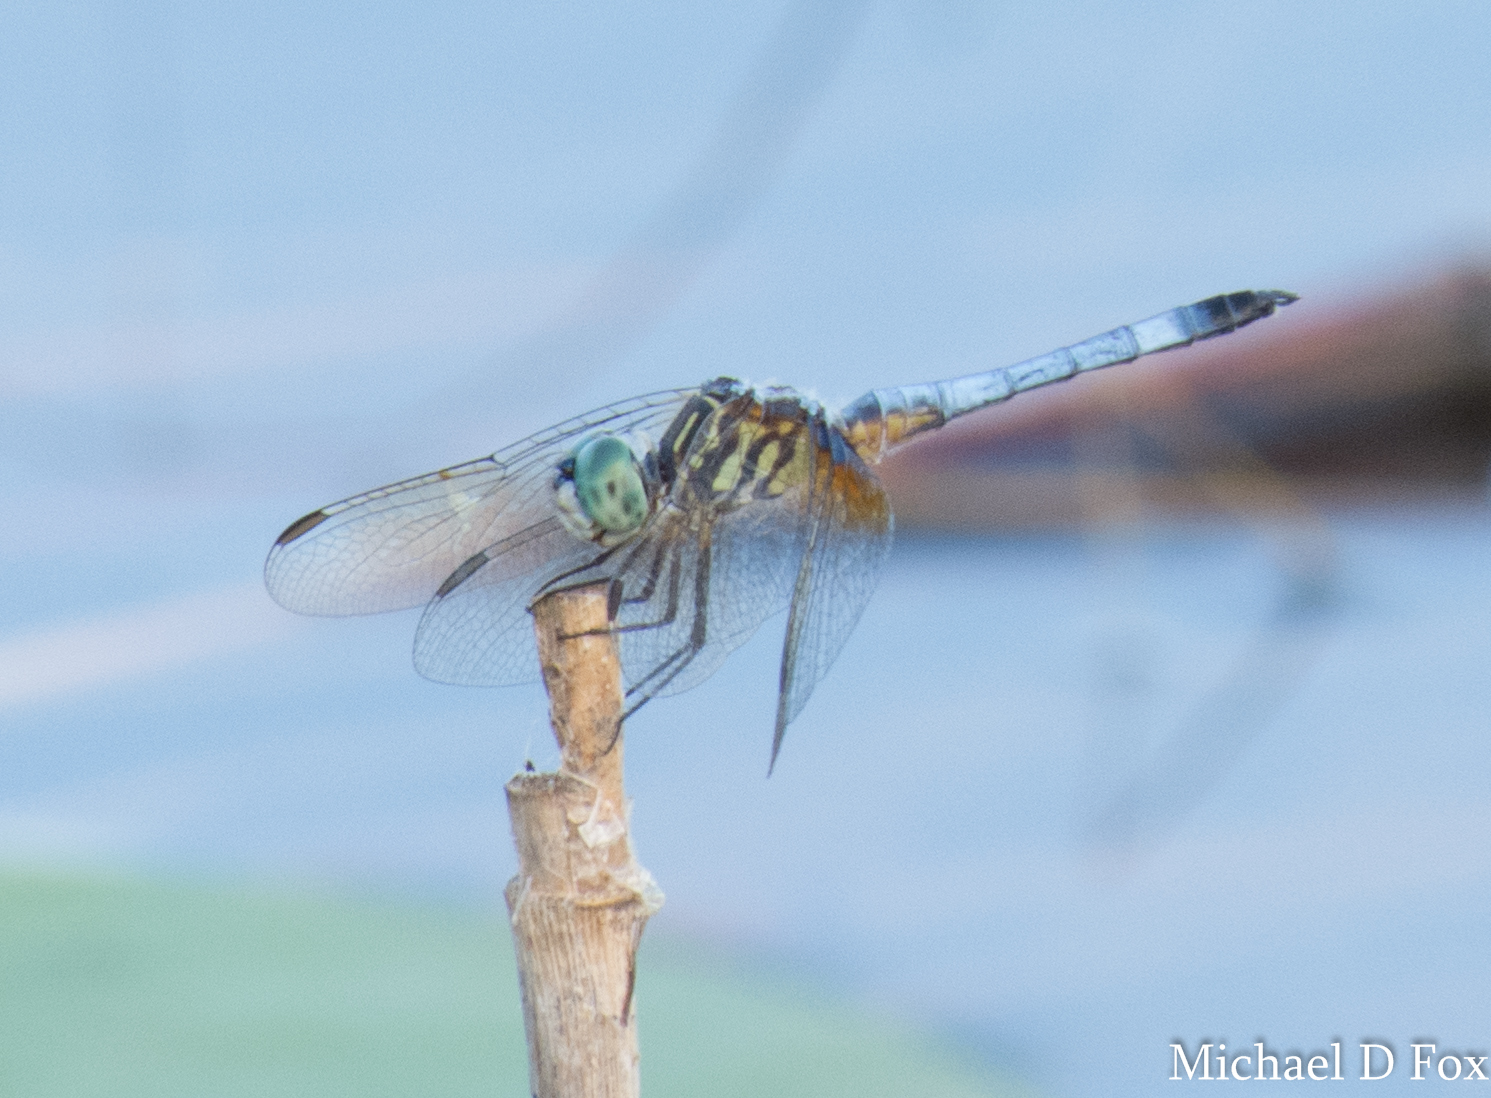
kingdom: Animalia
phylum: Arthropoda
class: Insecta
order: Odonata
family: Libellulidae
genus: Pachydiplax
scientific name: Pachydiplax longipennis
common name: Blue dasher
